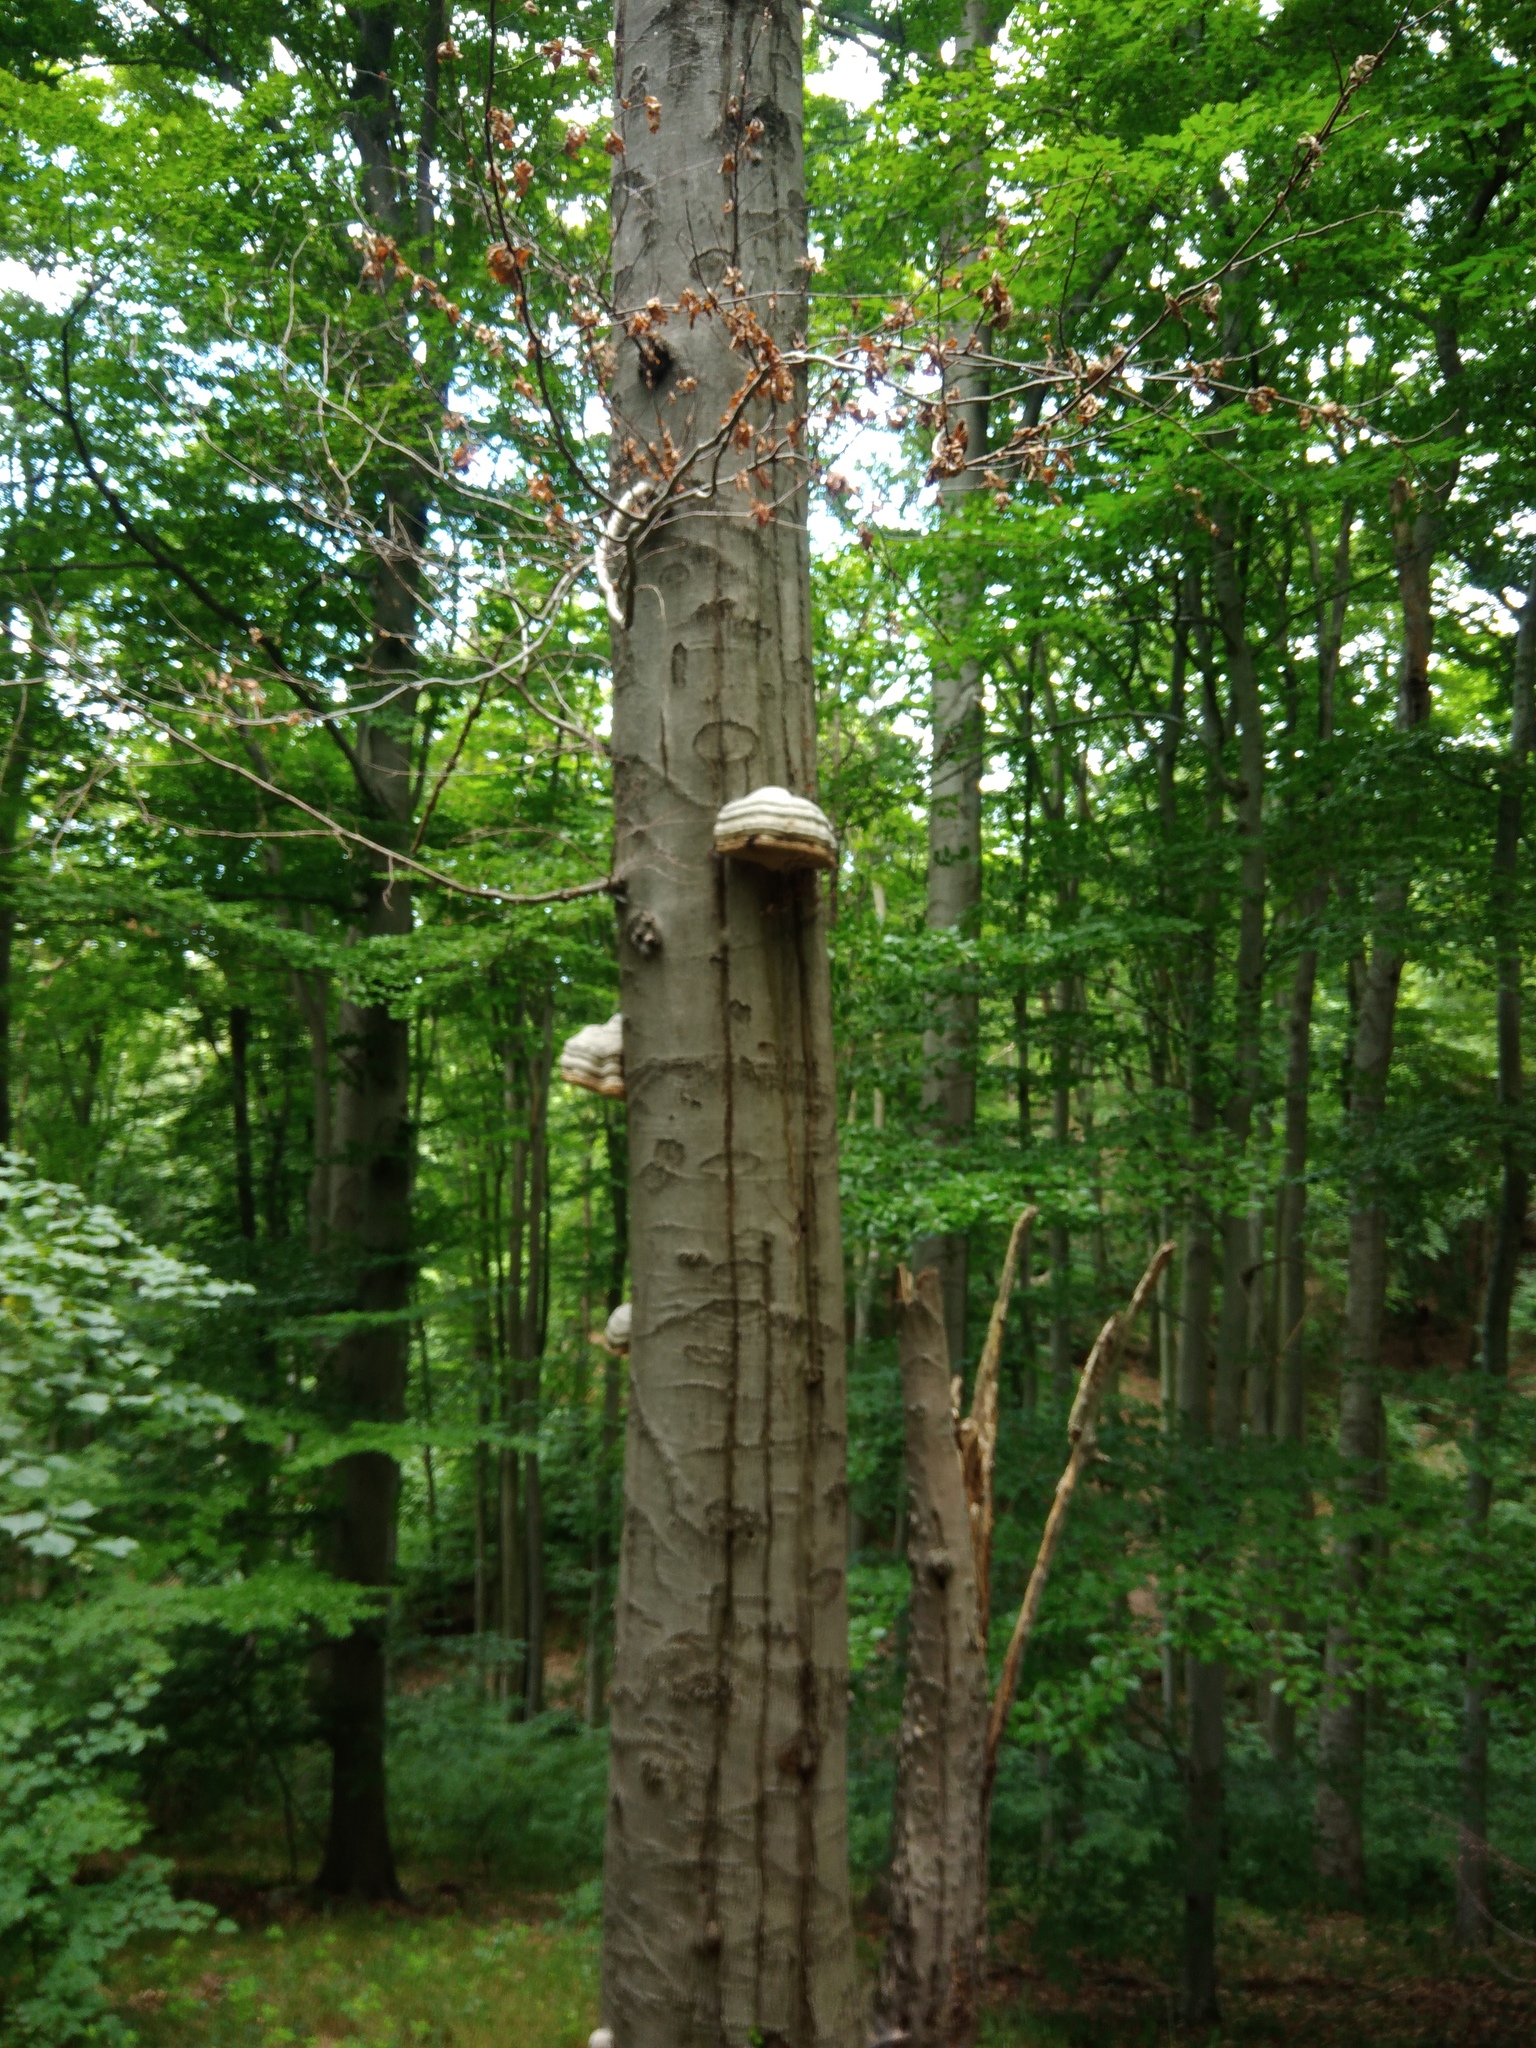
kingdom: Fungi
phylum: Basidiomycota
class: Agaricomycetes
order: Polyporales
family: Polyporaceae
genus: Fomes
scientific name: Fomes fomentarius
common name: Hoof fungus
